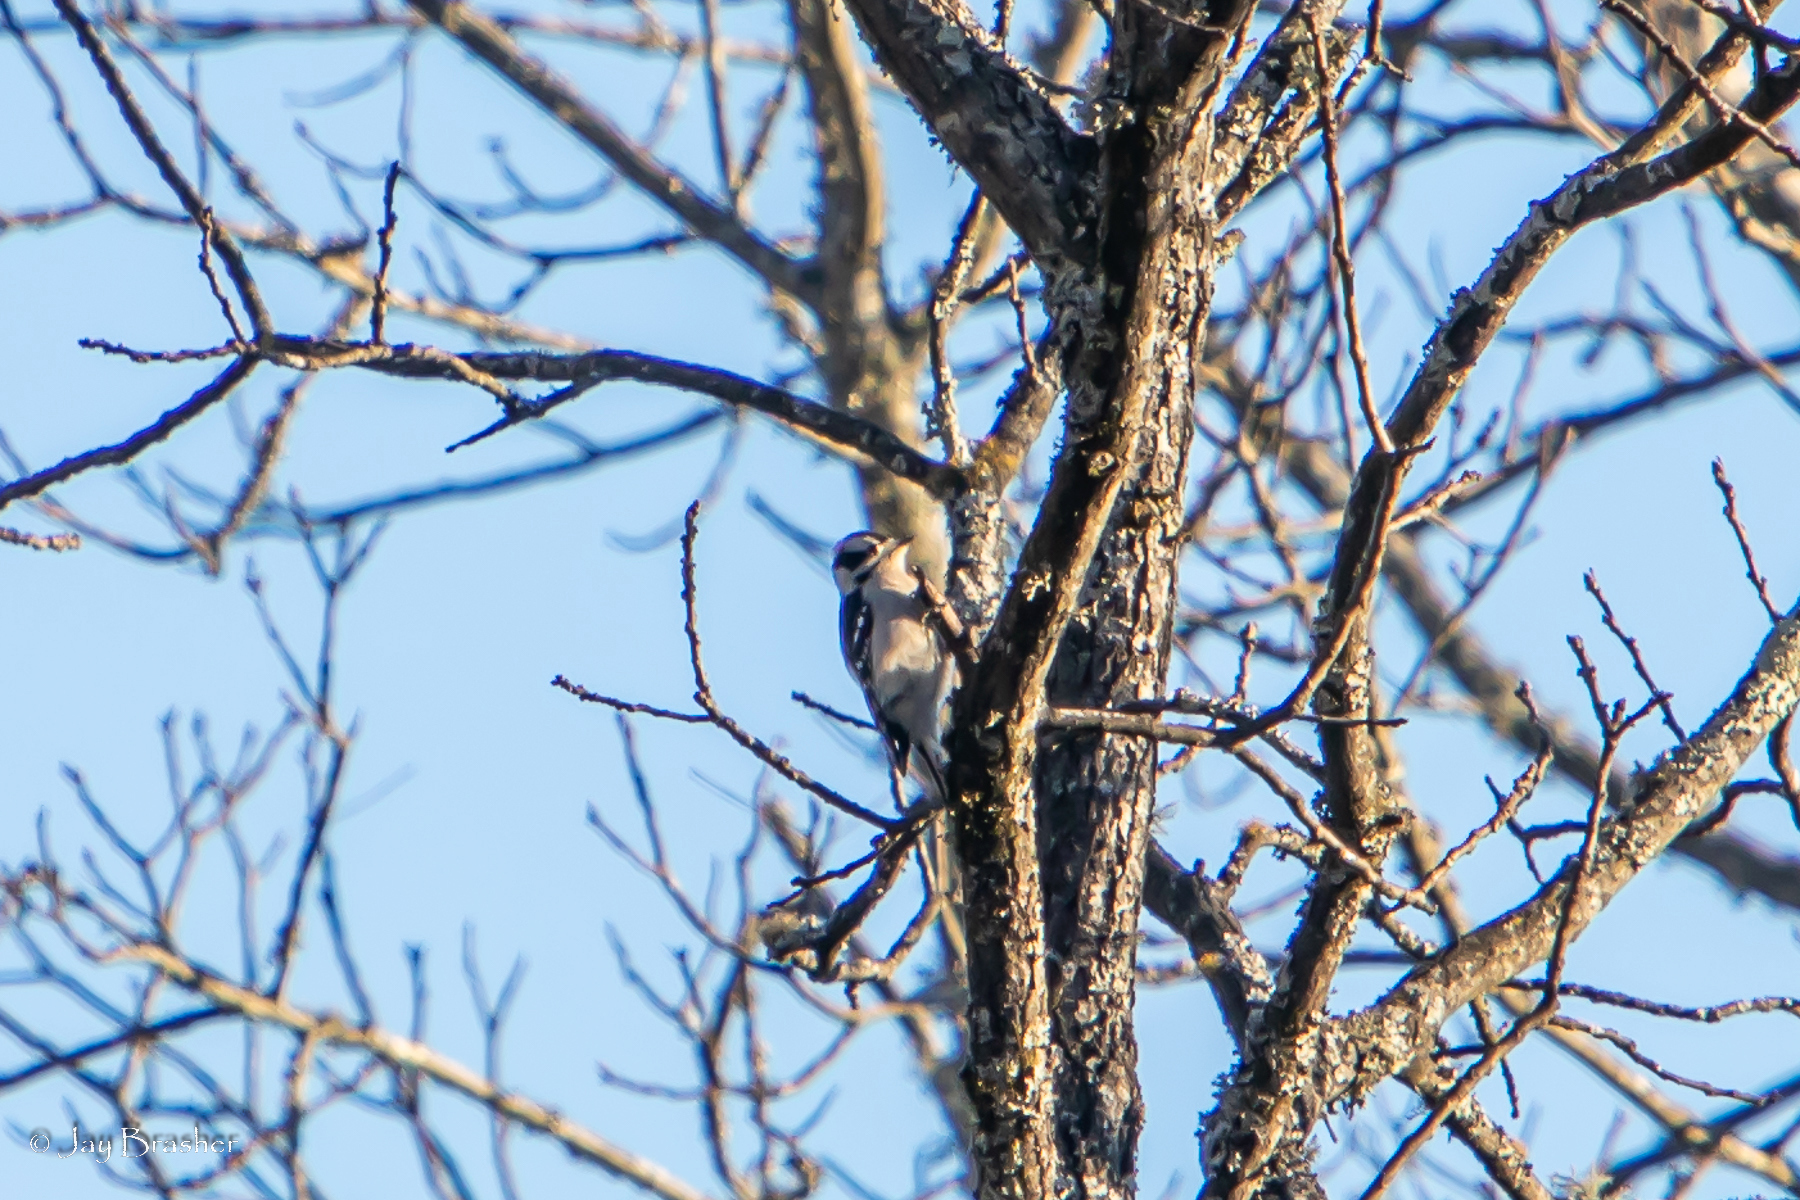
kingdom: Animalia
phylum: Chordata
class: Aves
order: Piciformes
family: Picidae
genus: Dryobates
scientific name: Dryobates pubescens
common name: Downy woodpecker
